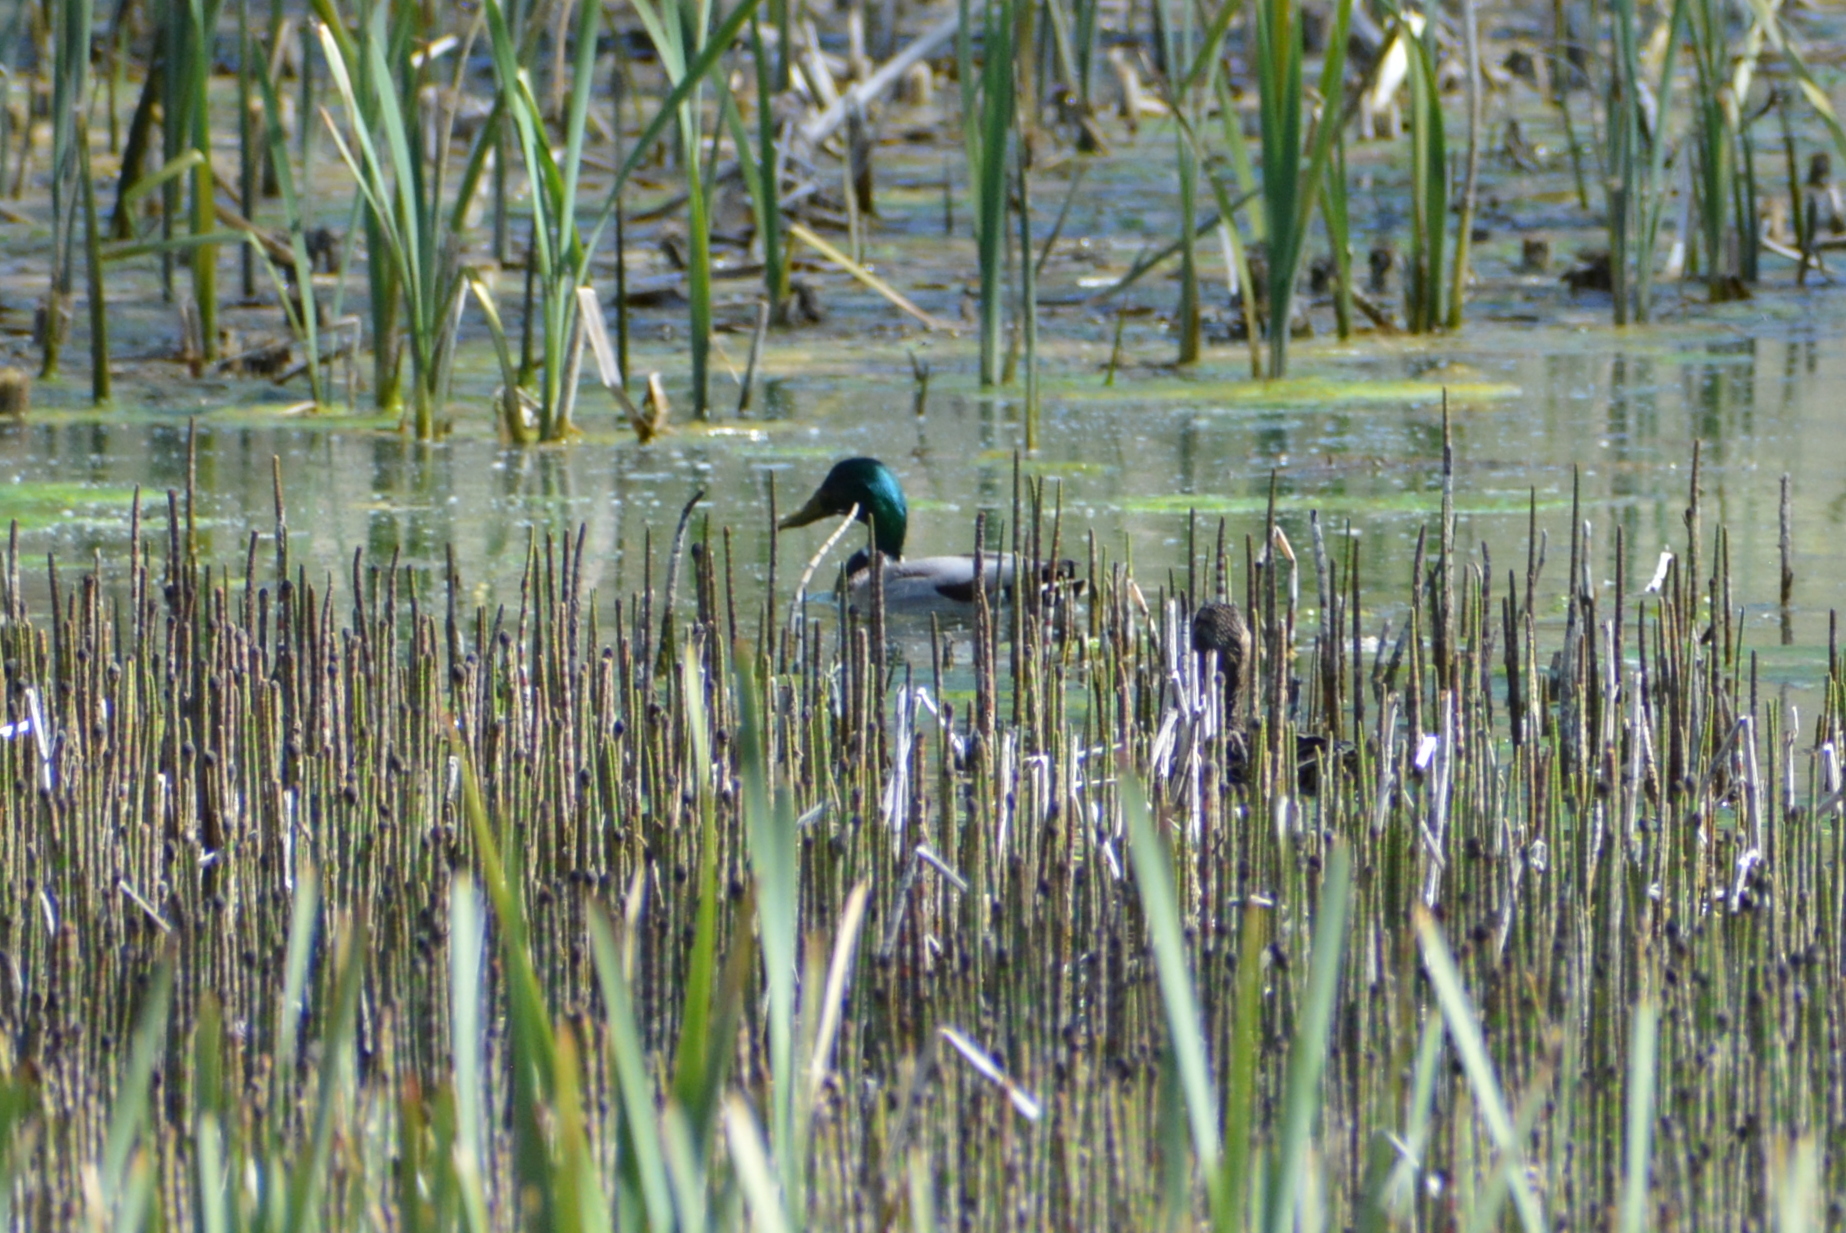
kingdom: Animalia
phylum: Chordata
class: Aves
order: Anseriformes
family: Anatidae
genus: Anas
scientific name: Anas platyrhynchos
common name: Mallard
